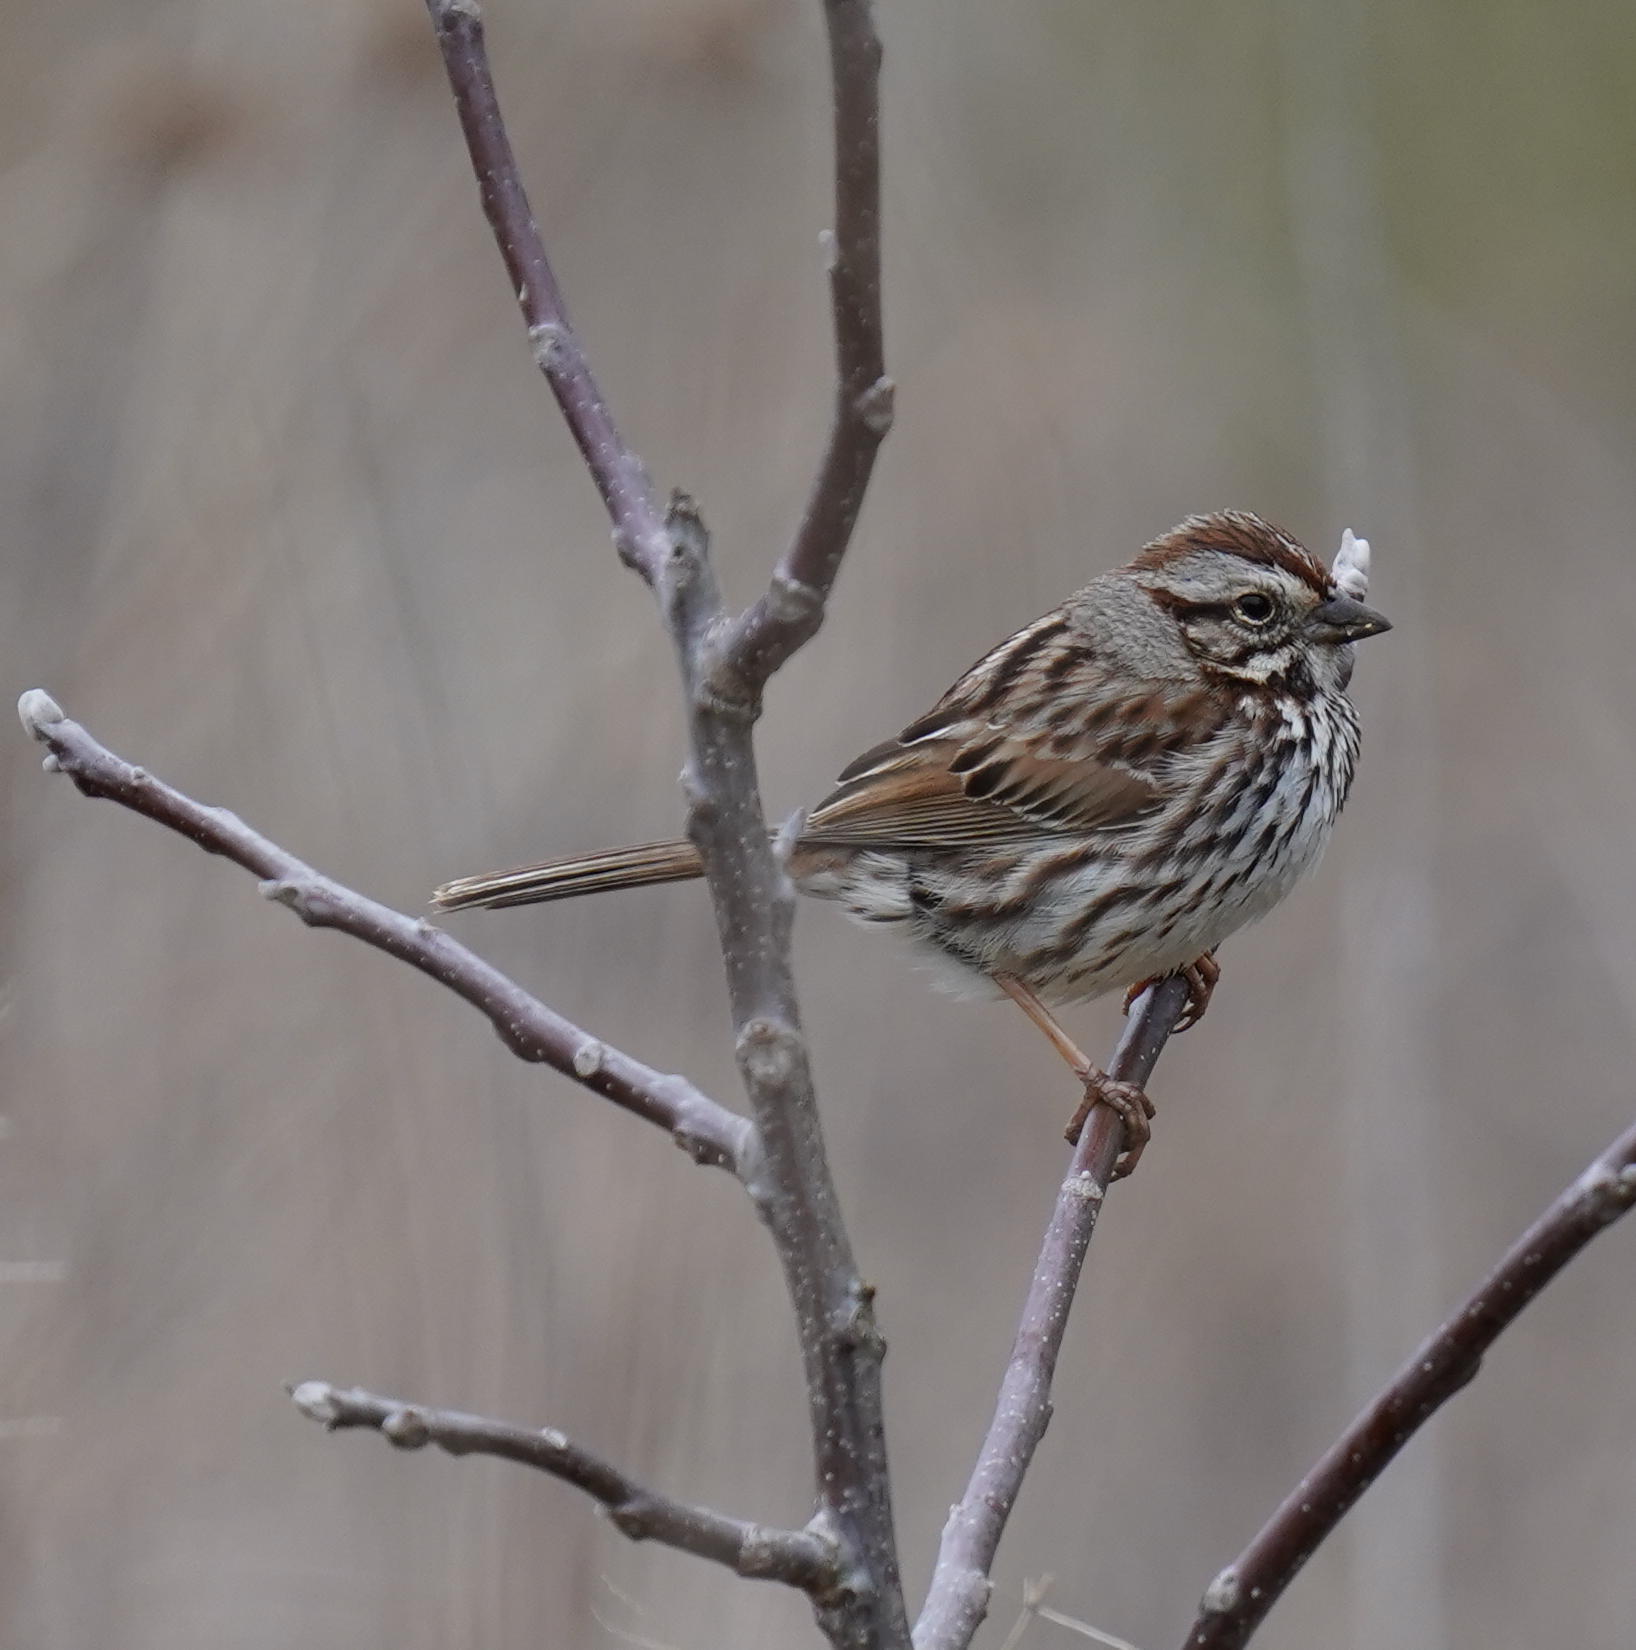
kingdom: Animalia
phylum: Chordata
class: Aves
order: Passeriformes
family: Passerellidae
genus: Melospiza
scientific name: Melospiza melodia
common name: Song sparrow
